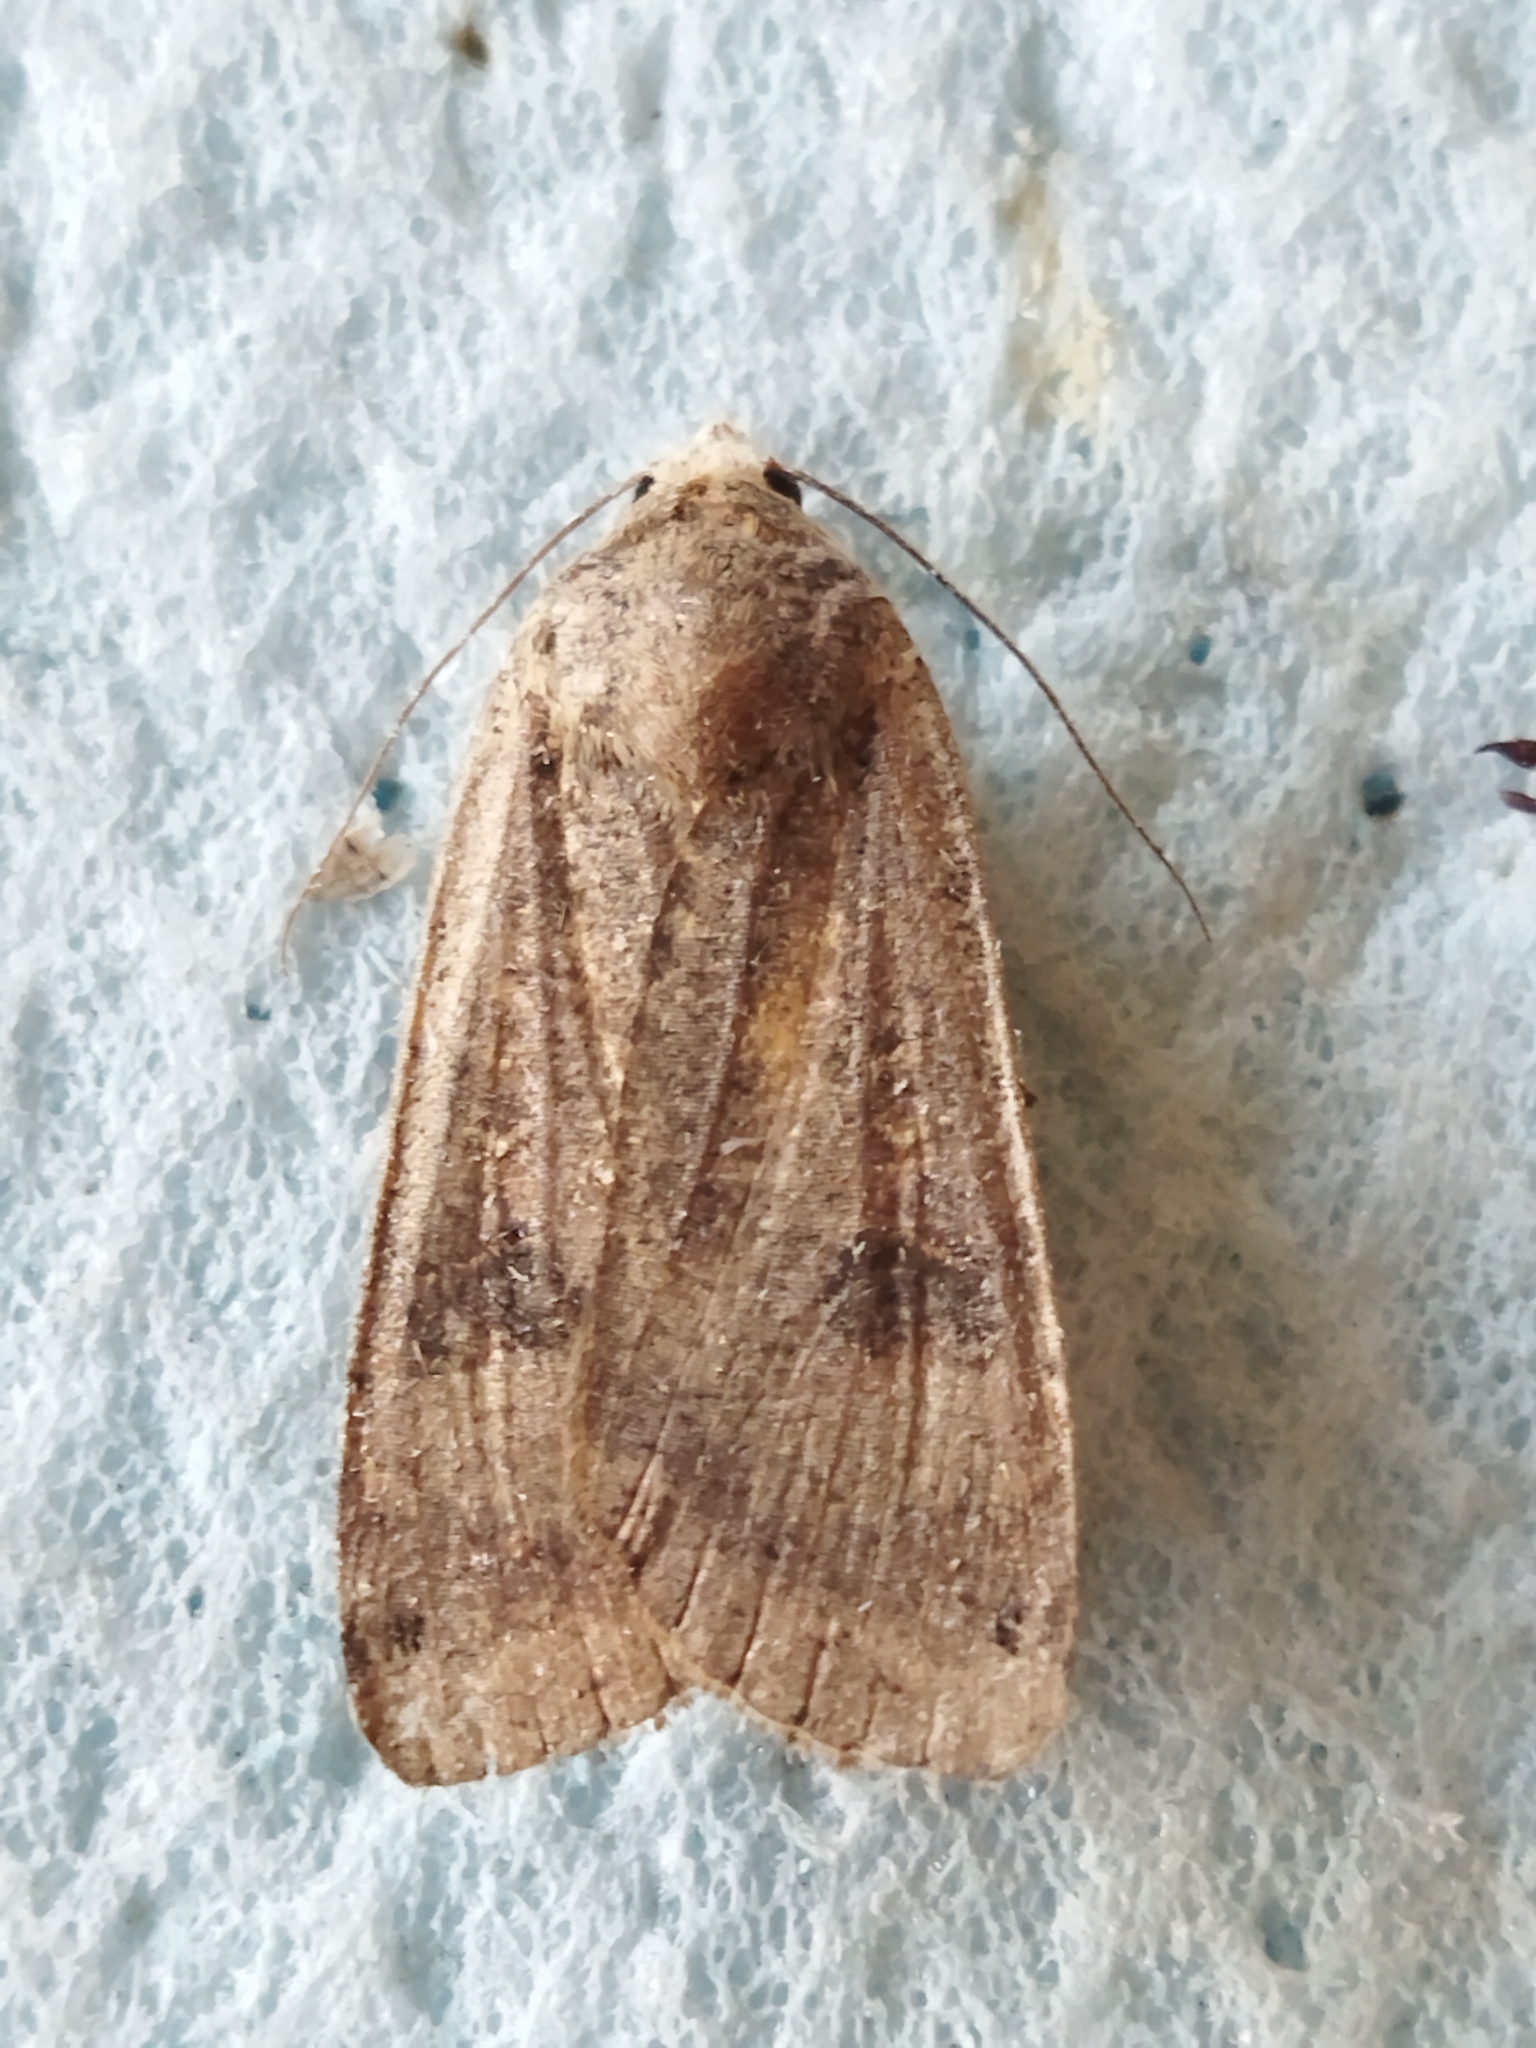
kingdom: Animalia
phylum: Arthropoda
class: Insecta
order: Lepidoptera
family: Noctuidae
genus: Noctua
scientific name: Noctua pronuba
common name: Large yellow underwing
